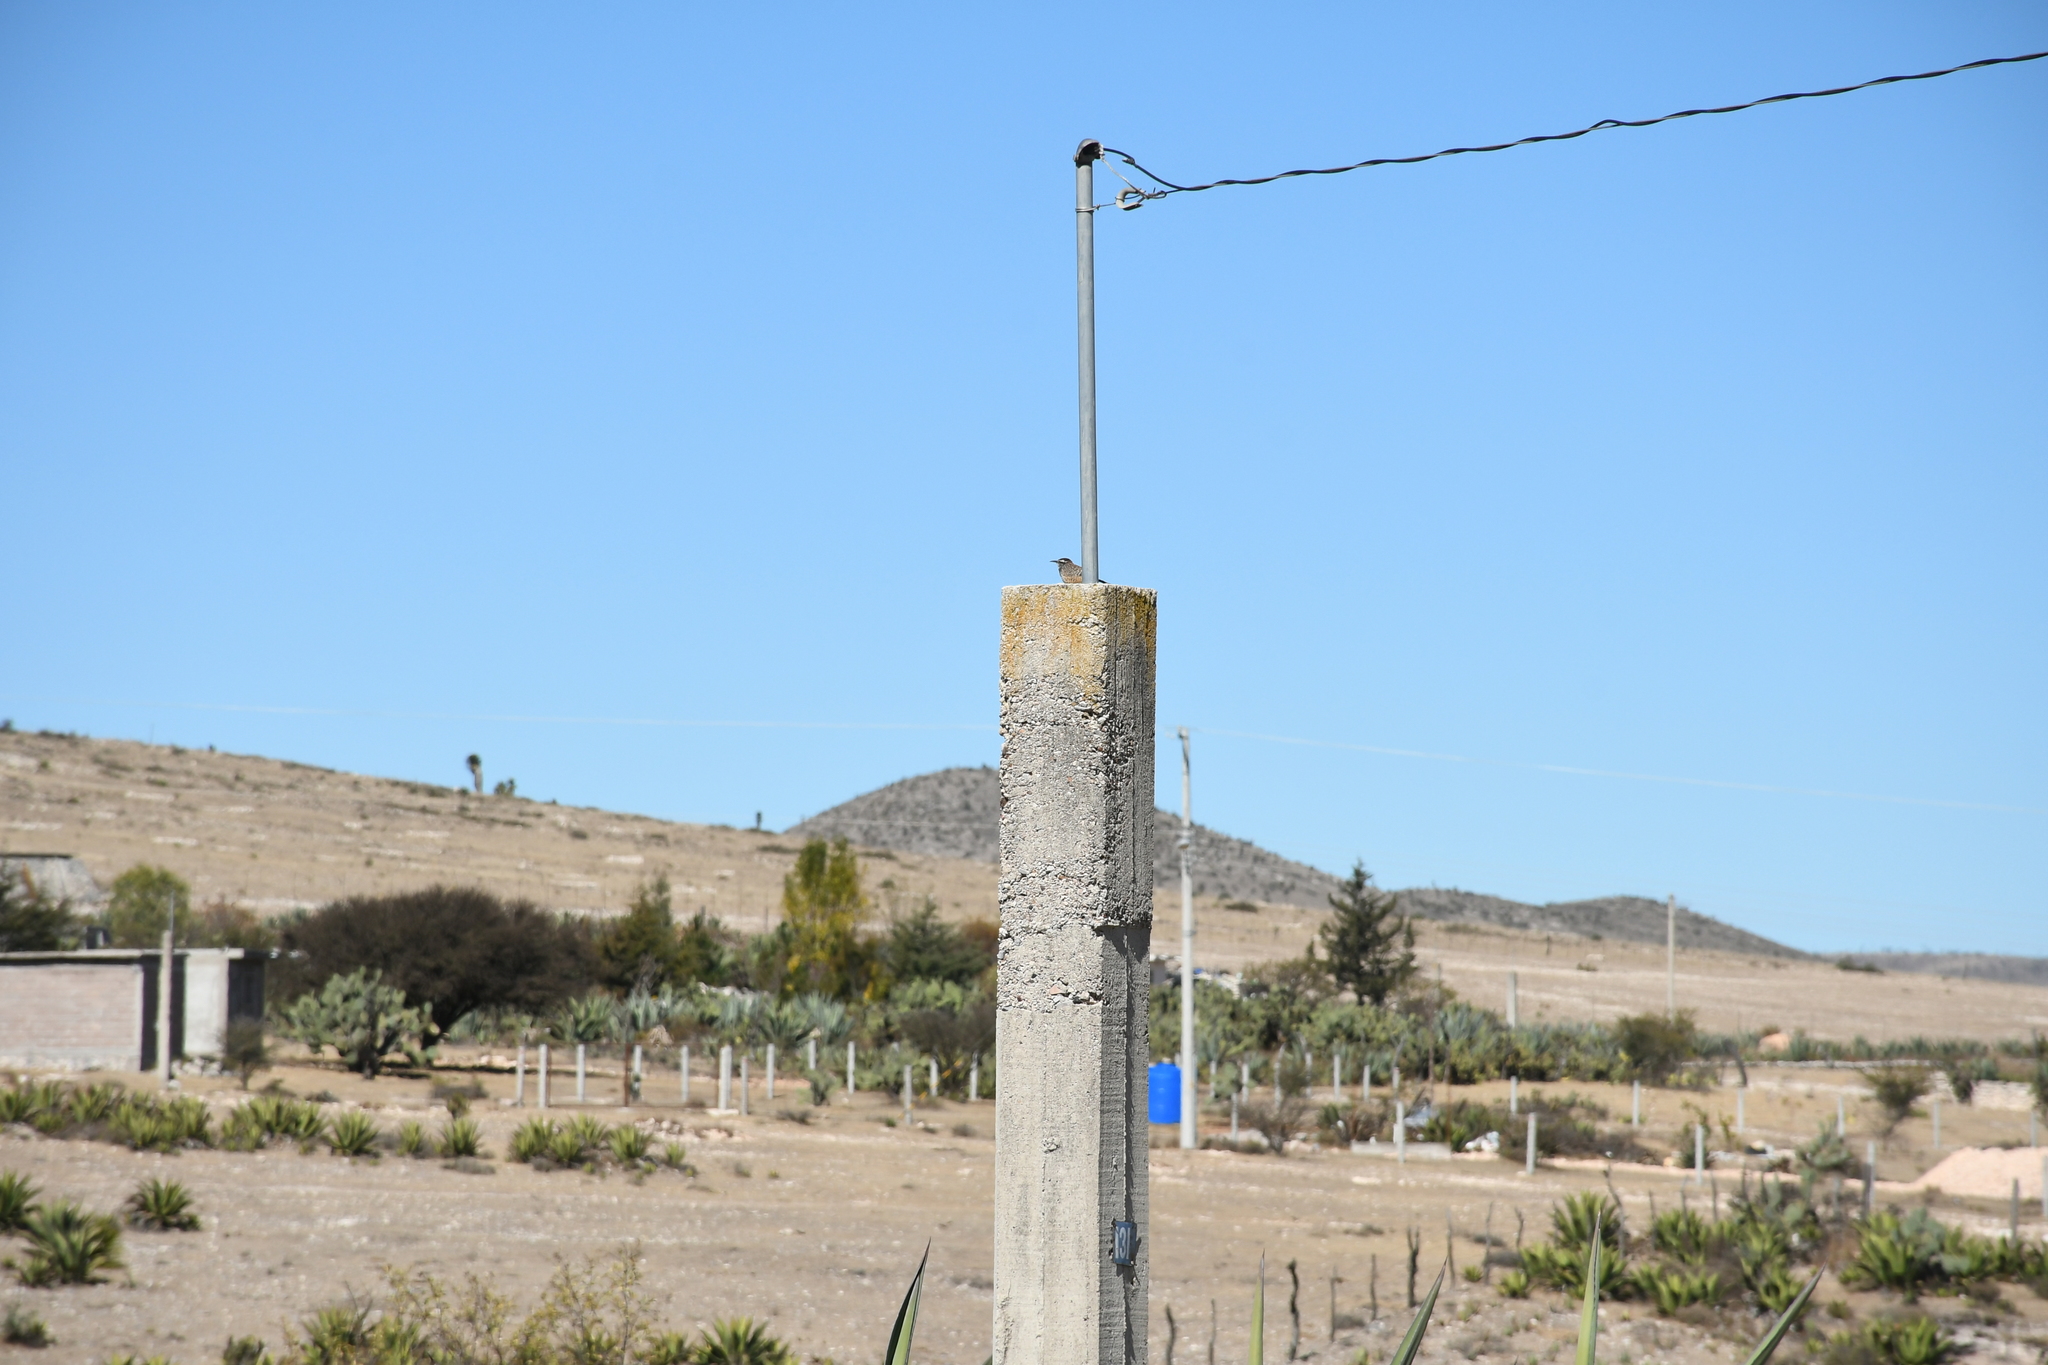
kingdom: Animalia
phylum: Chordata
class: Aves
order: Passeriformes
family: Troglodytidae
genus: Campylorhynchus
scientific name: Campylorhynchus brunneicapillus
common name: Cactus wren
